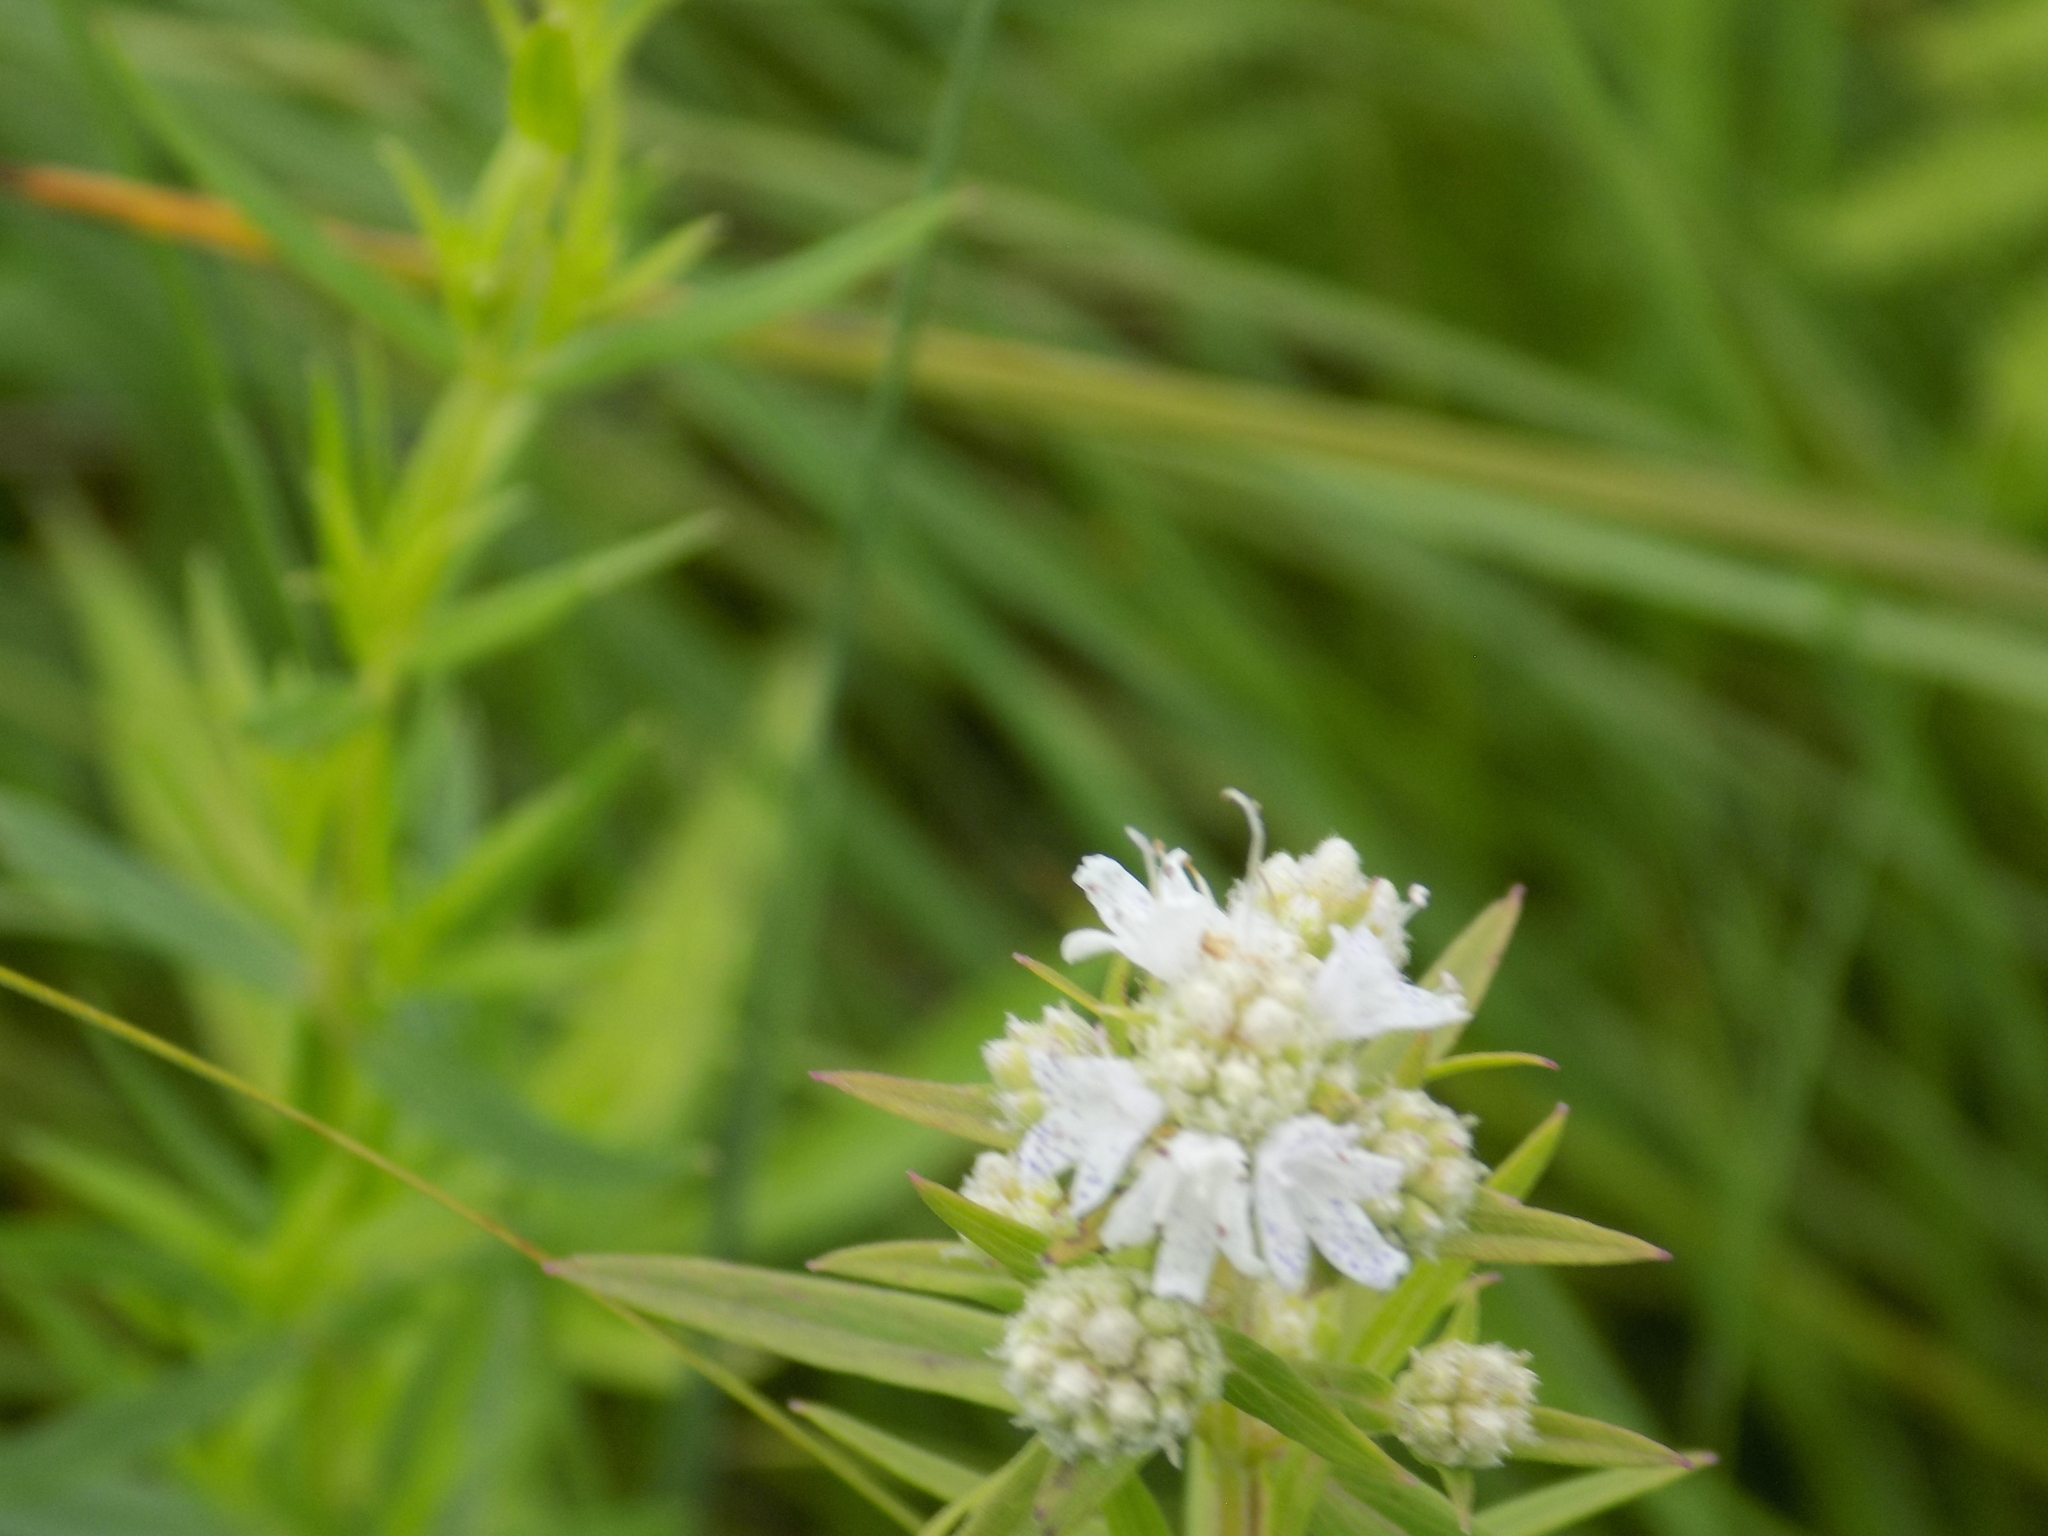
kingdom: Plantae
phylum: Tracheophyta
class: Magnoliopsida
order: Lamiales
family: Lamiaceae
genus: Pycnanthemum
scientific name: Pycnanthemum virginianum
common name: Virginia mountain-mint
